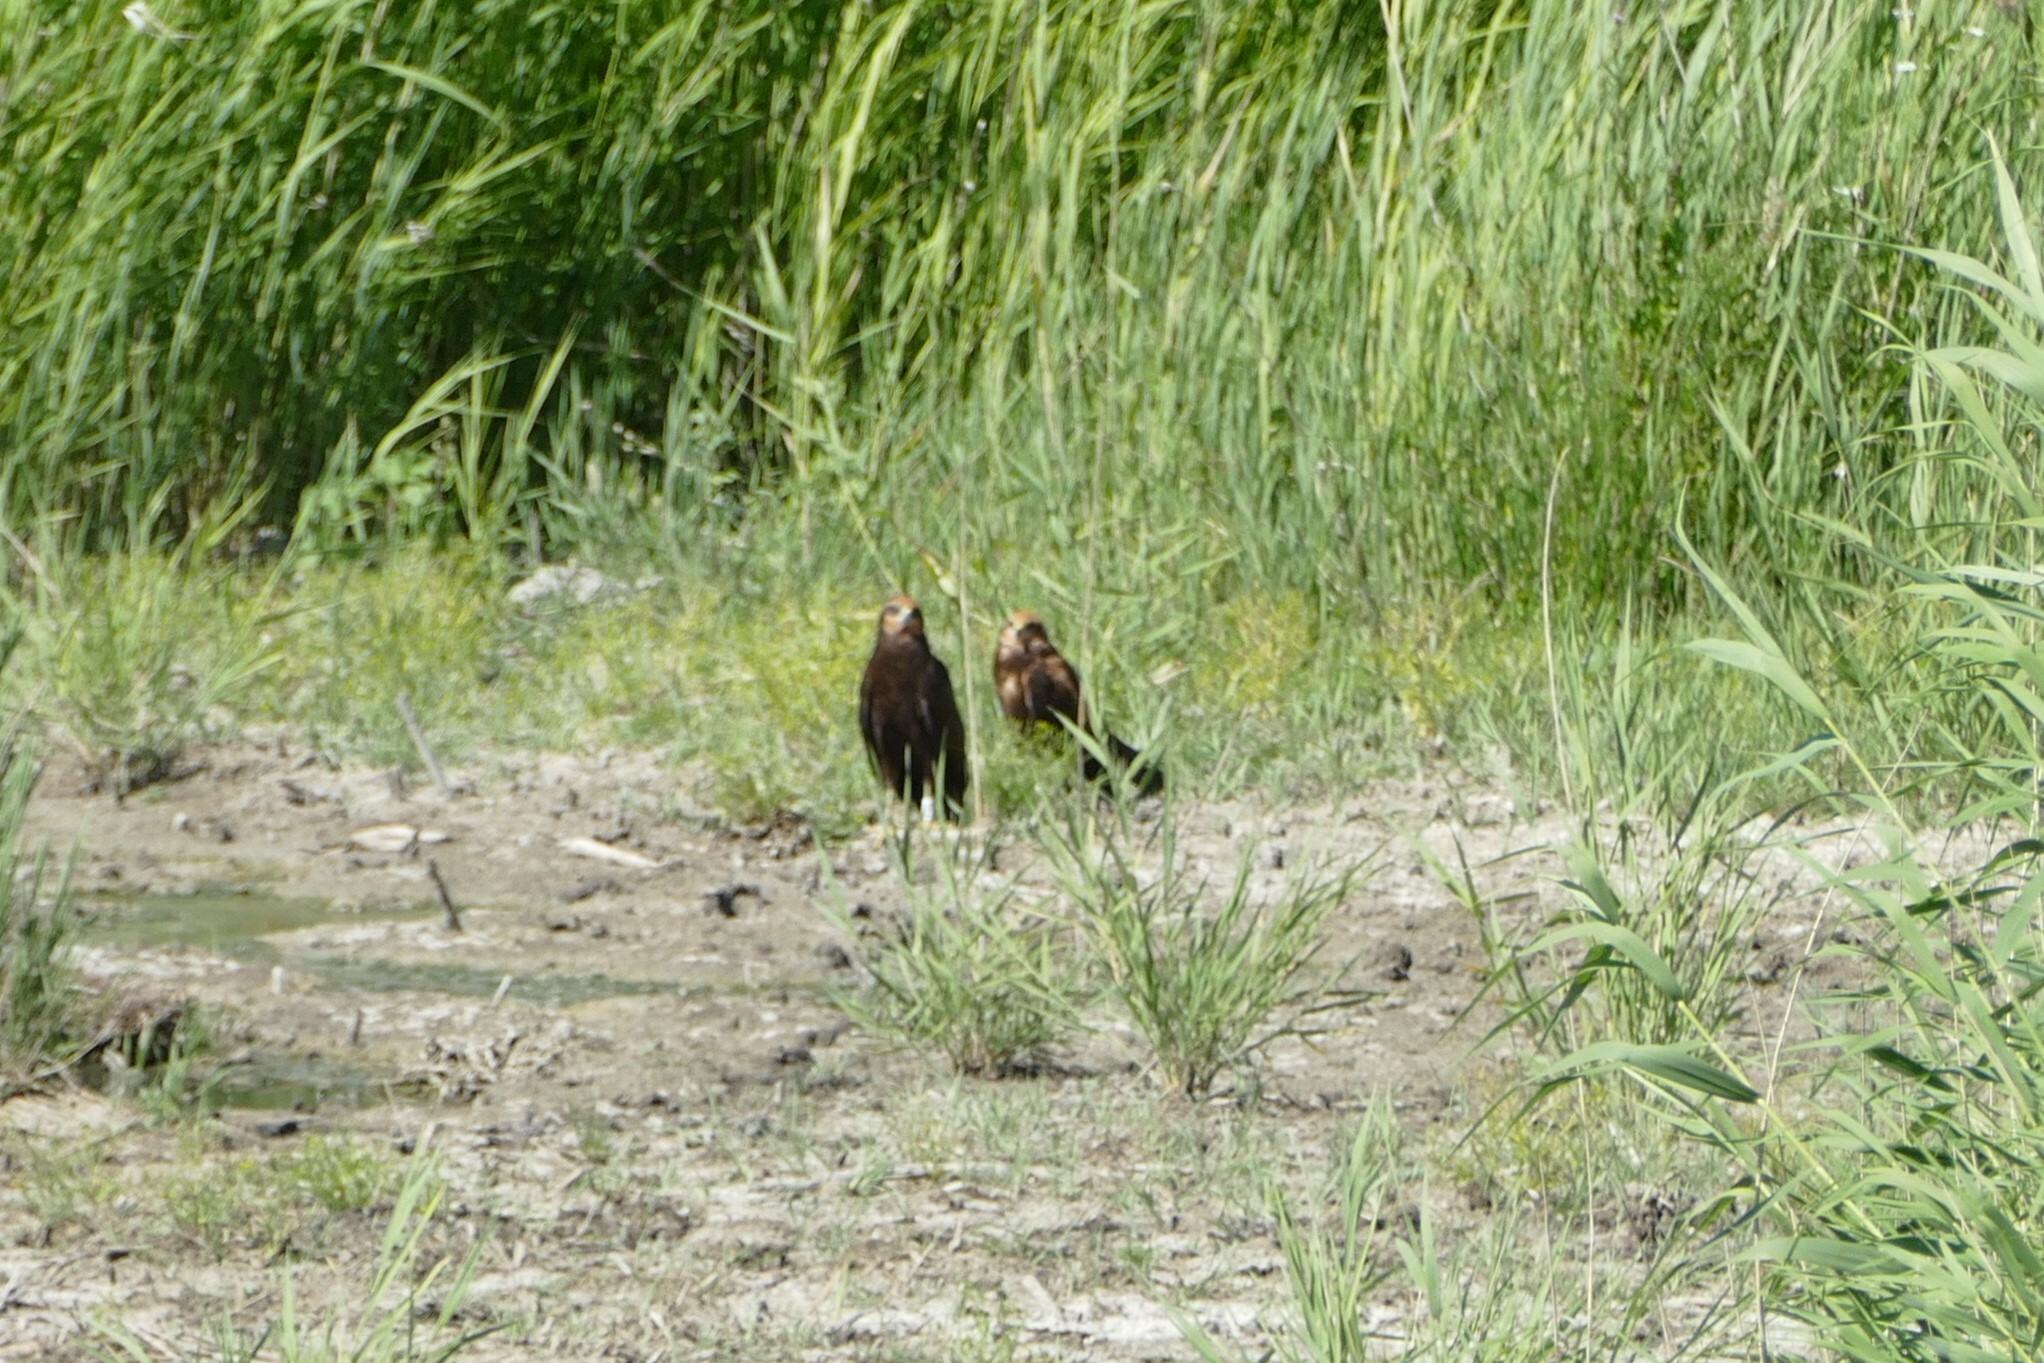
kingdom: Animalia
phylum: Chordata
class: Aves
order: Accipitriformes
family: Accipitridae
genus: Circus
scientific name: Circus aeruginosus
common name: Western marsh harrier
